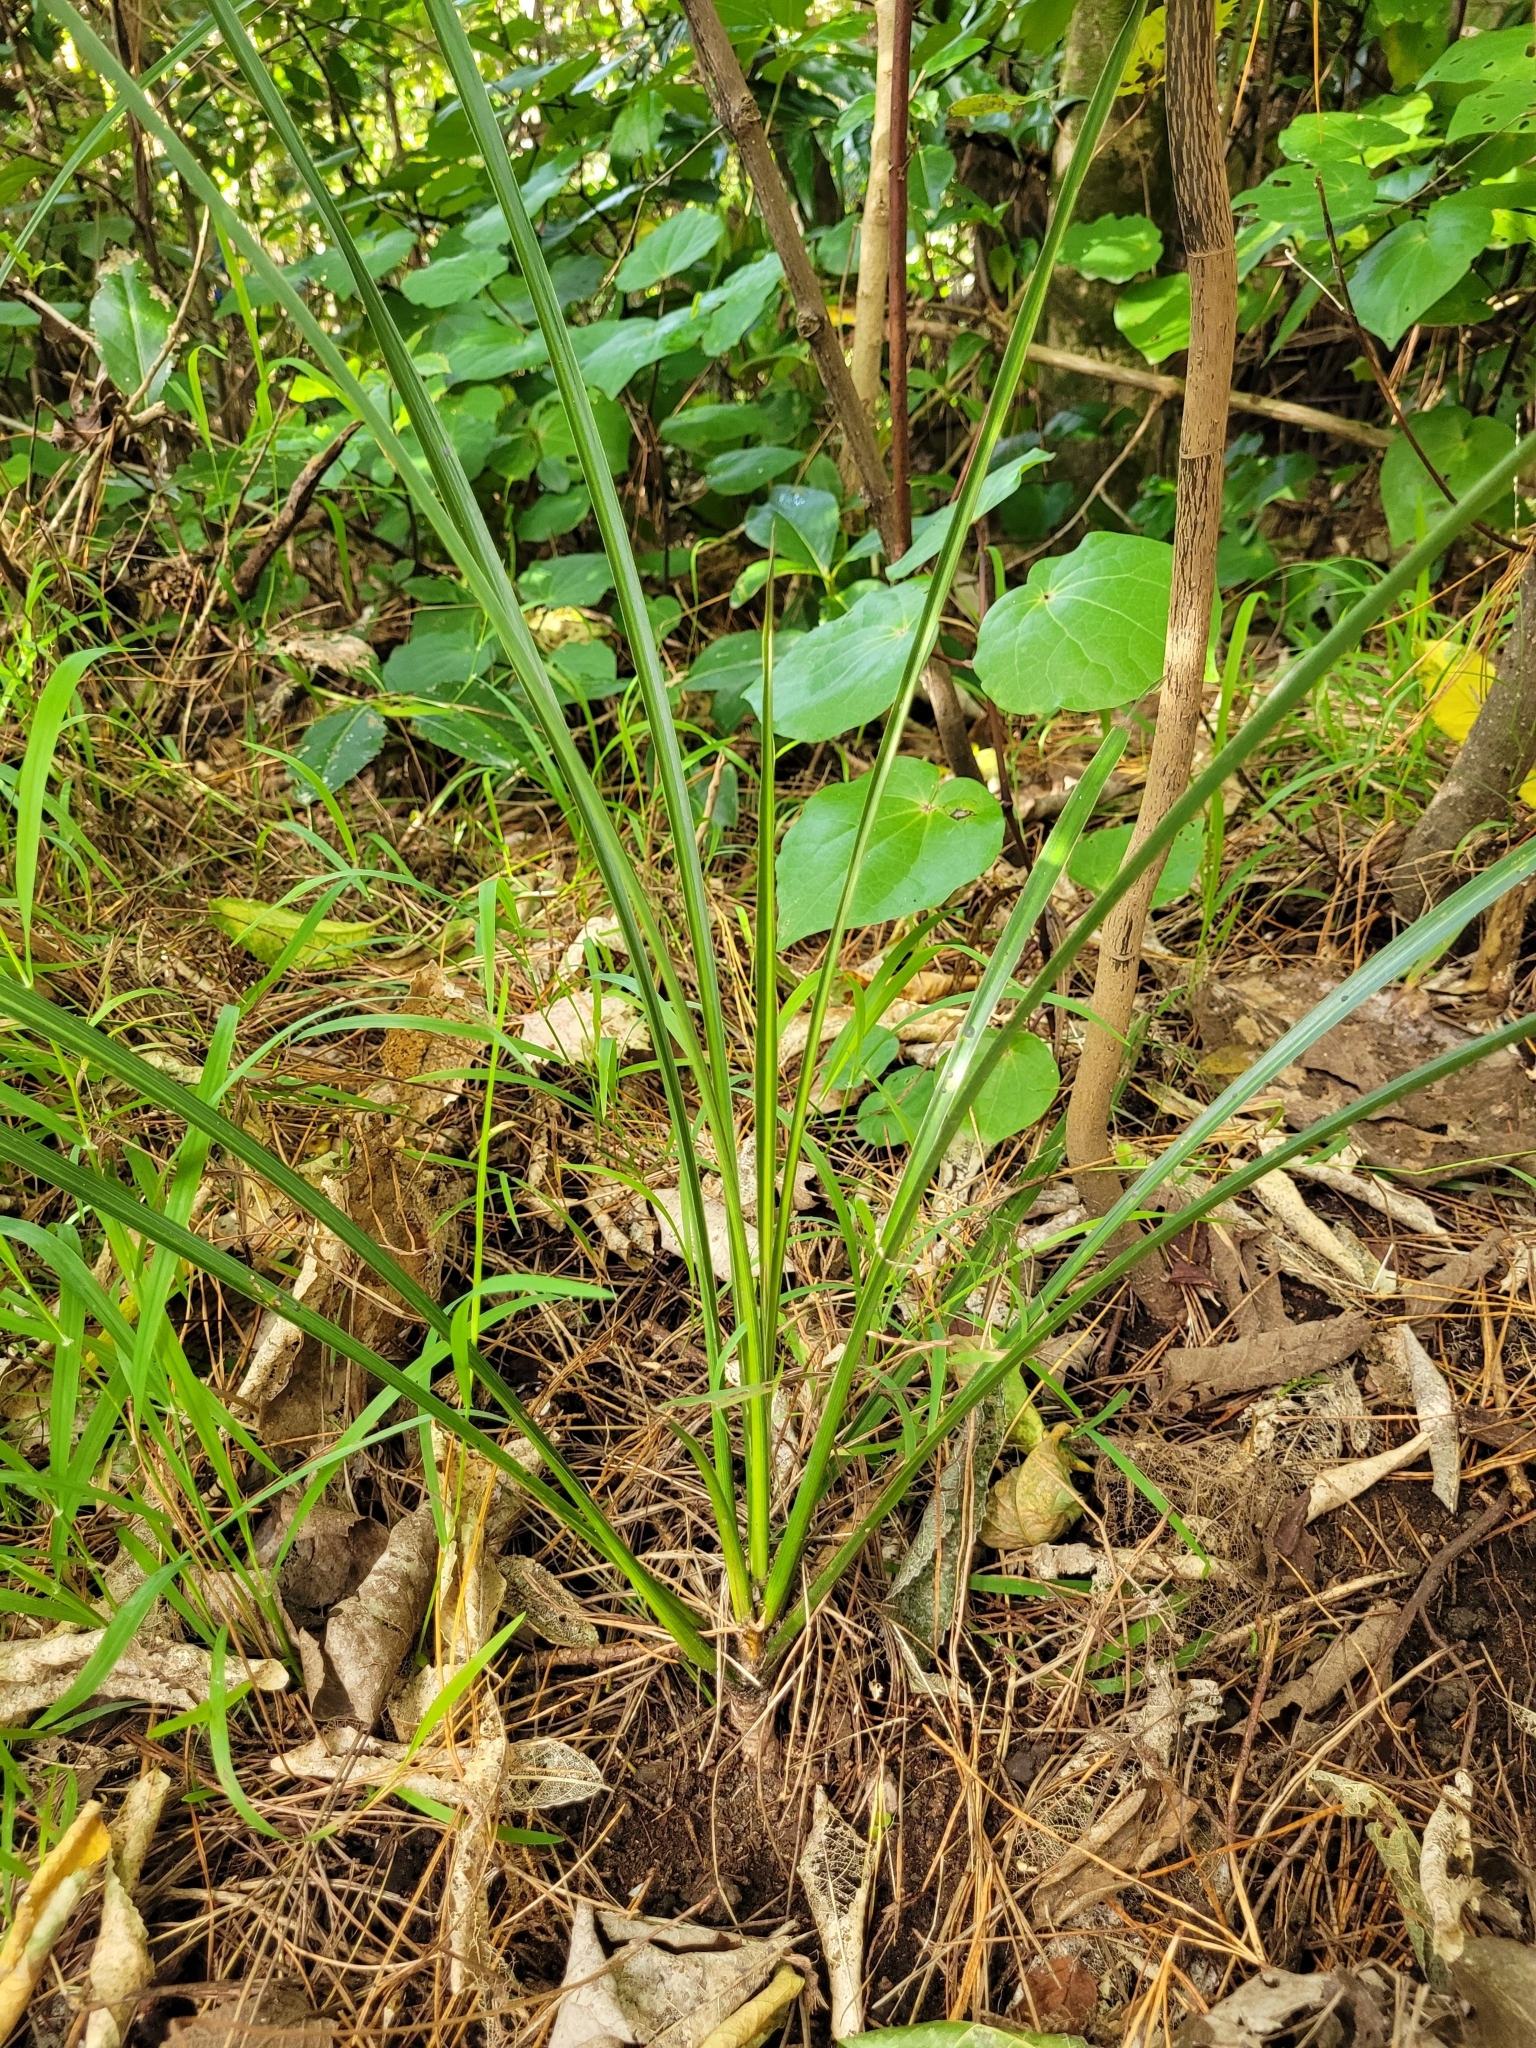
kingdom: Plantae
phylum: Tracheophyta
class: Liliopsida
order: Asparagales
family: Asparagaceae
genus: Cordyline
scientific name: Cordyline australis
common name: Cabbage-palm
